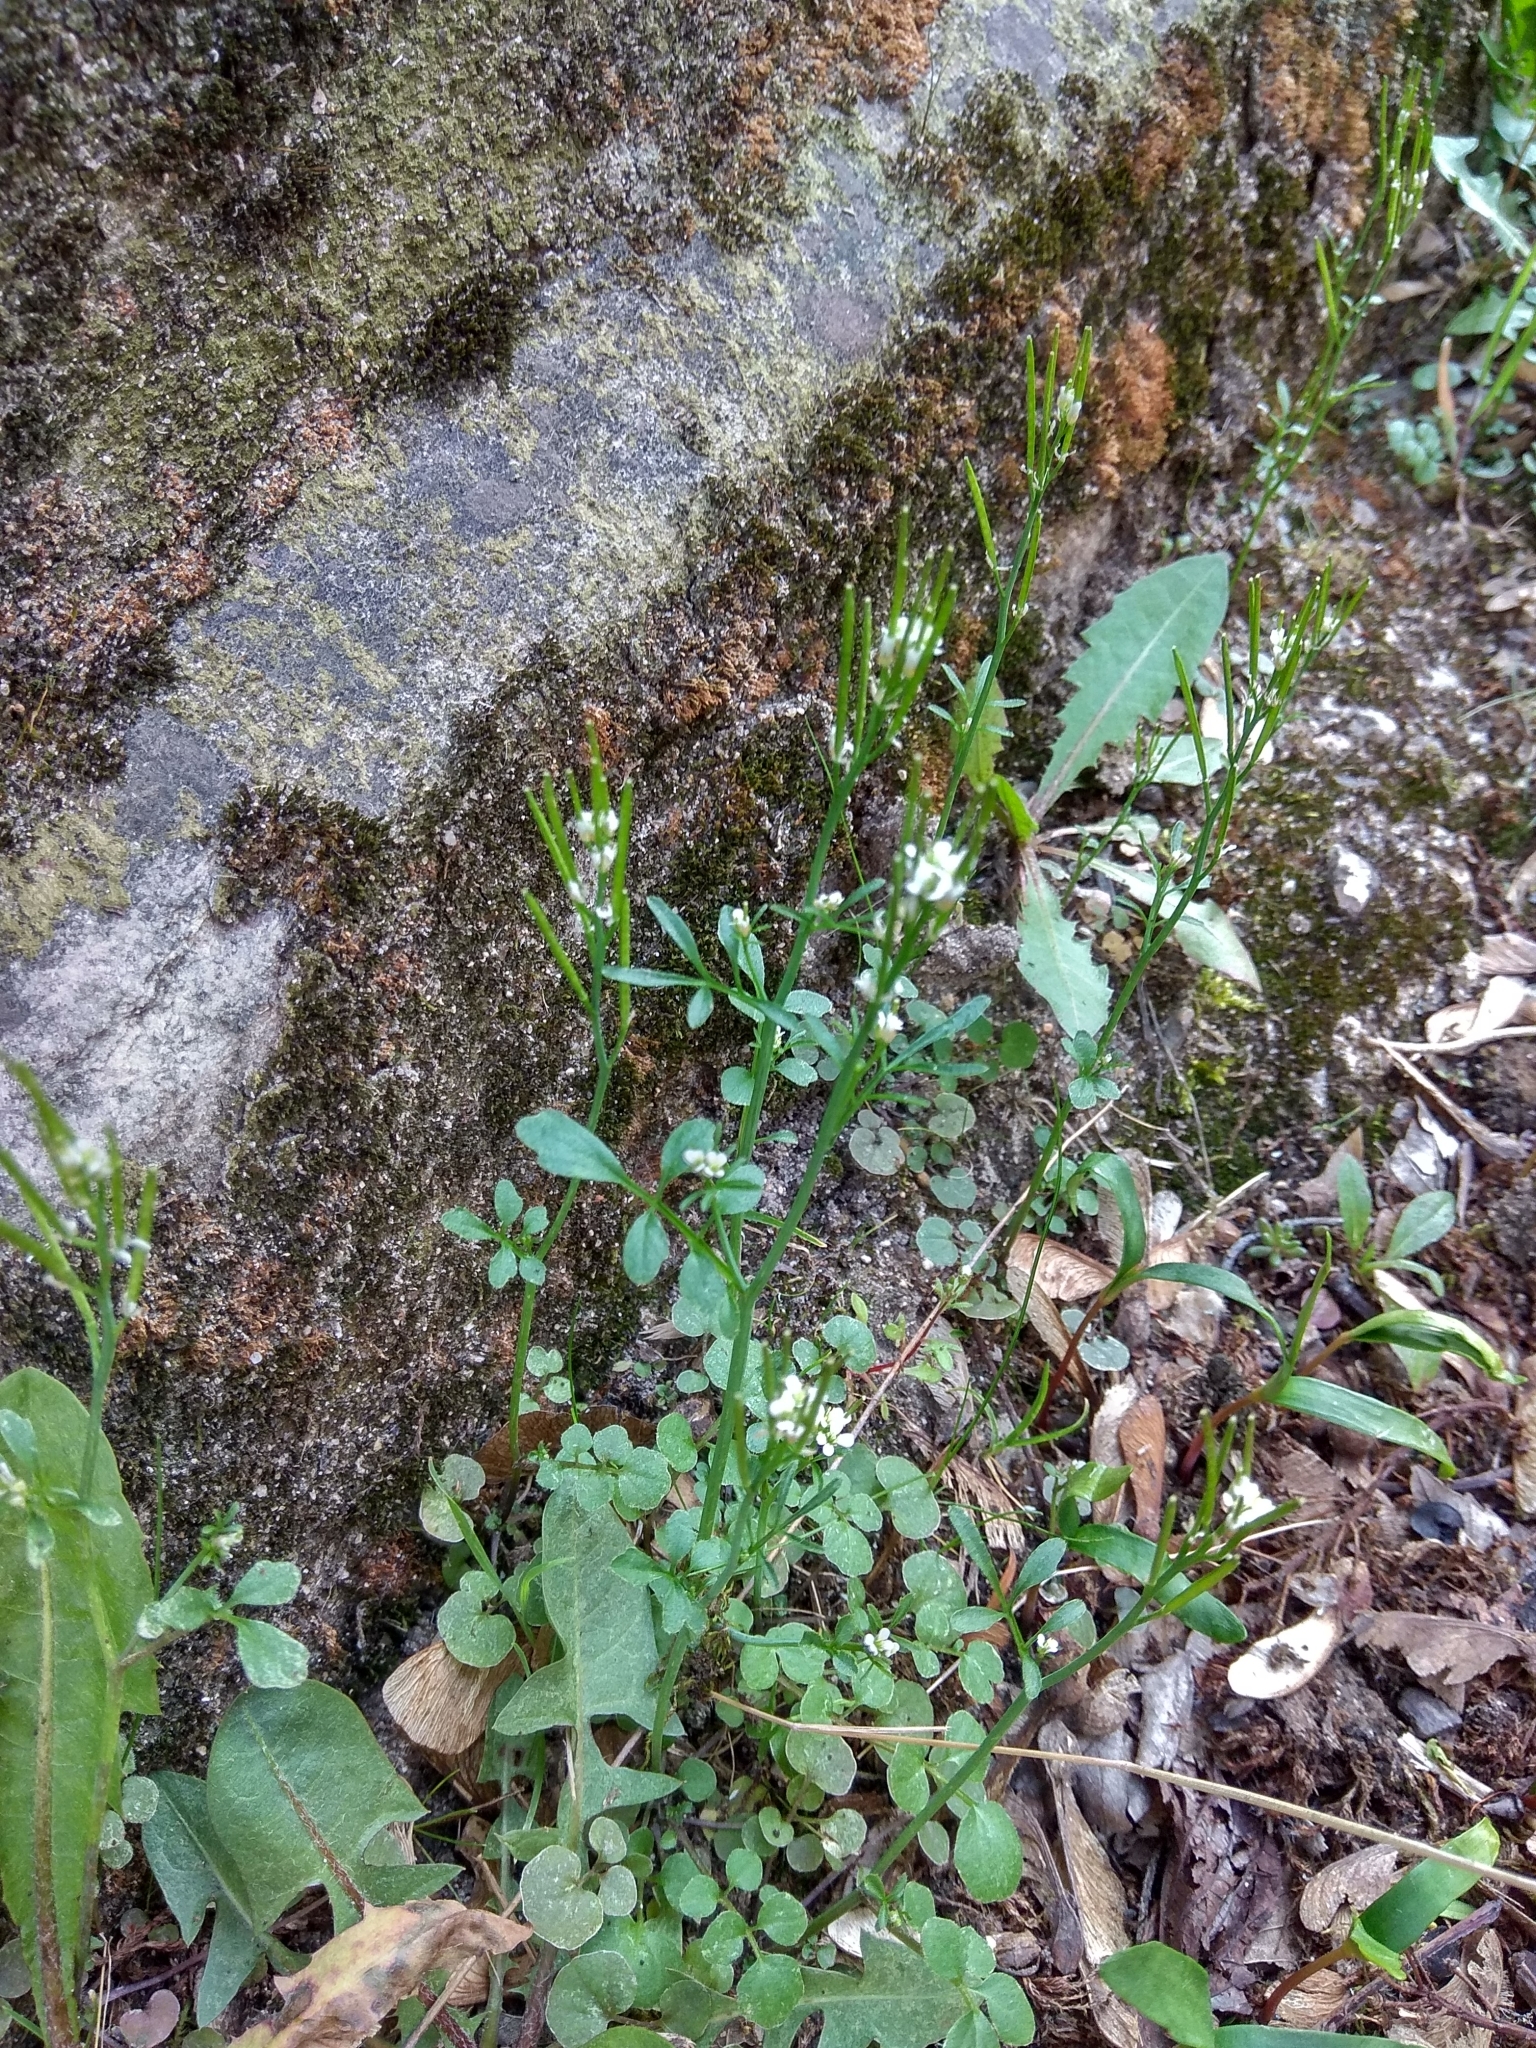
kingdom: Plantae
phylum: Tracheophyta
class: Magnoliopsida
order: Brassicales
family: Brassicaceae
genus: Cardamine
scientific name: Cardamine hirsuta
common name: Hairy bittercress
